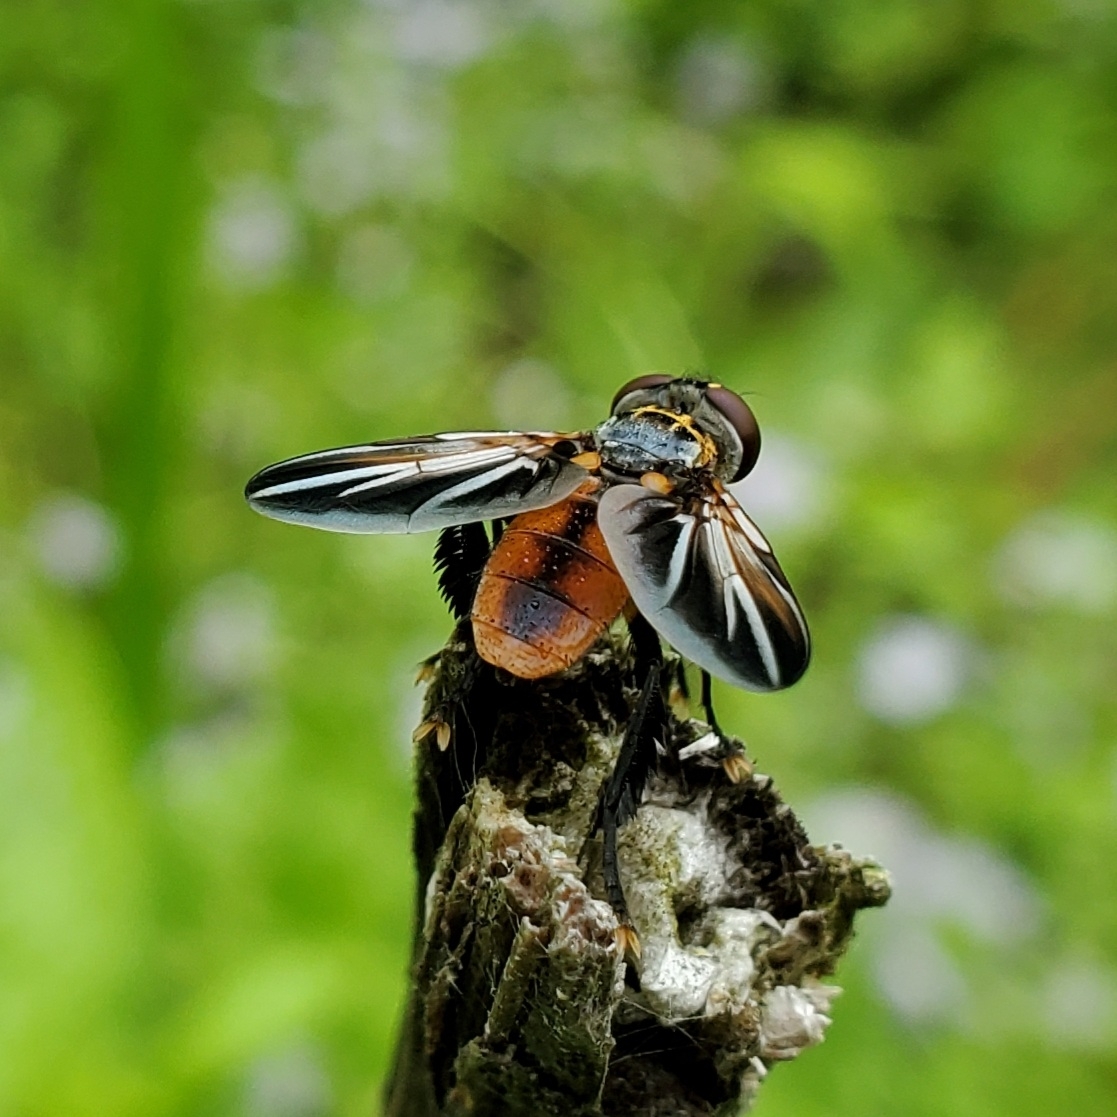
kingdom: Animalia
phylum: Arthropoda
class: Insecta
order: Diptera
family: Tachinidae
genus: Trichopoda
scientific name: Trichopoda lanipes
